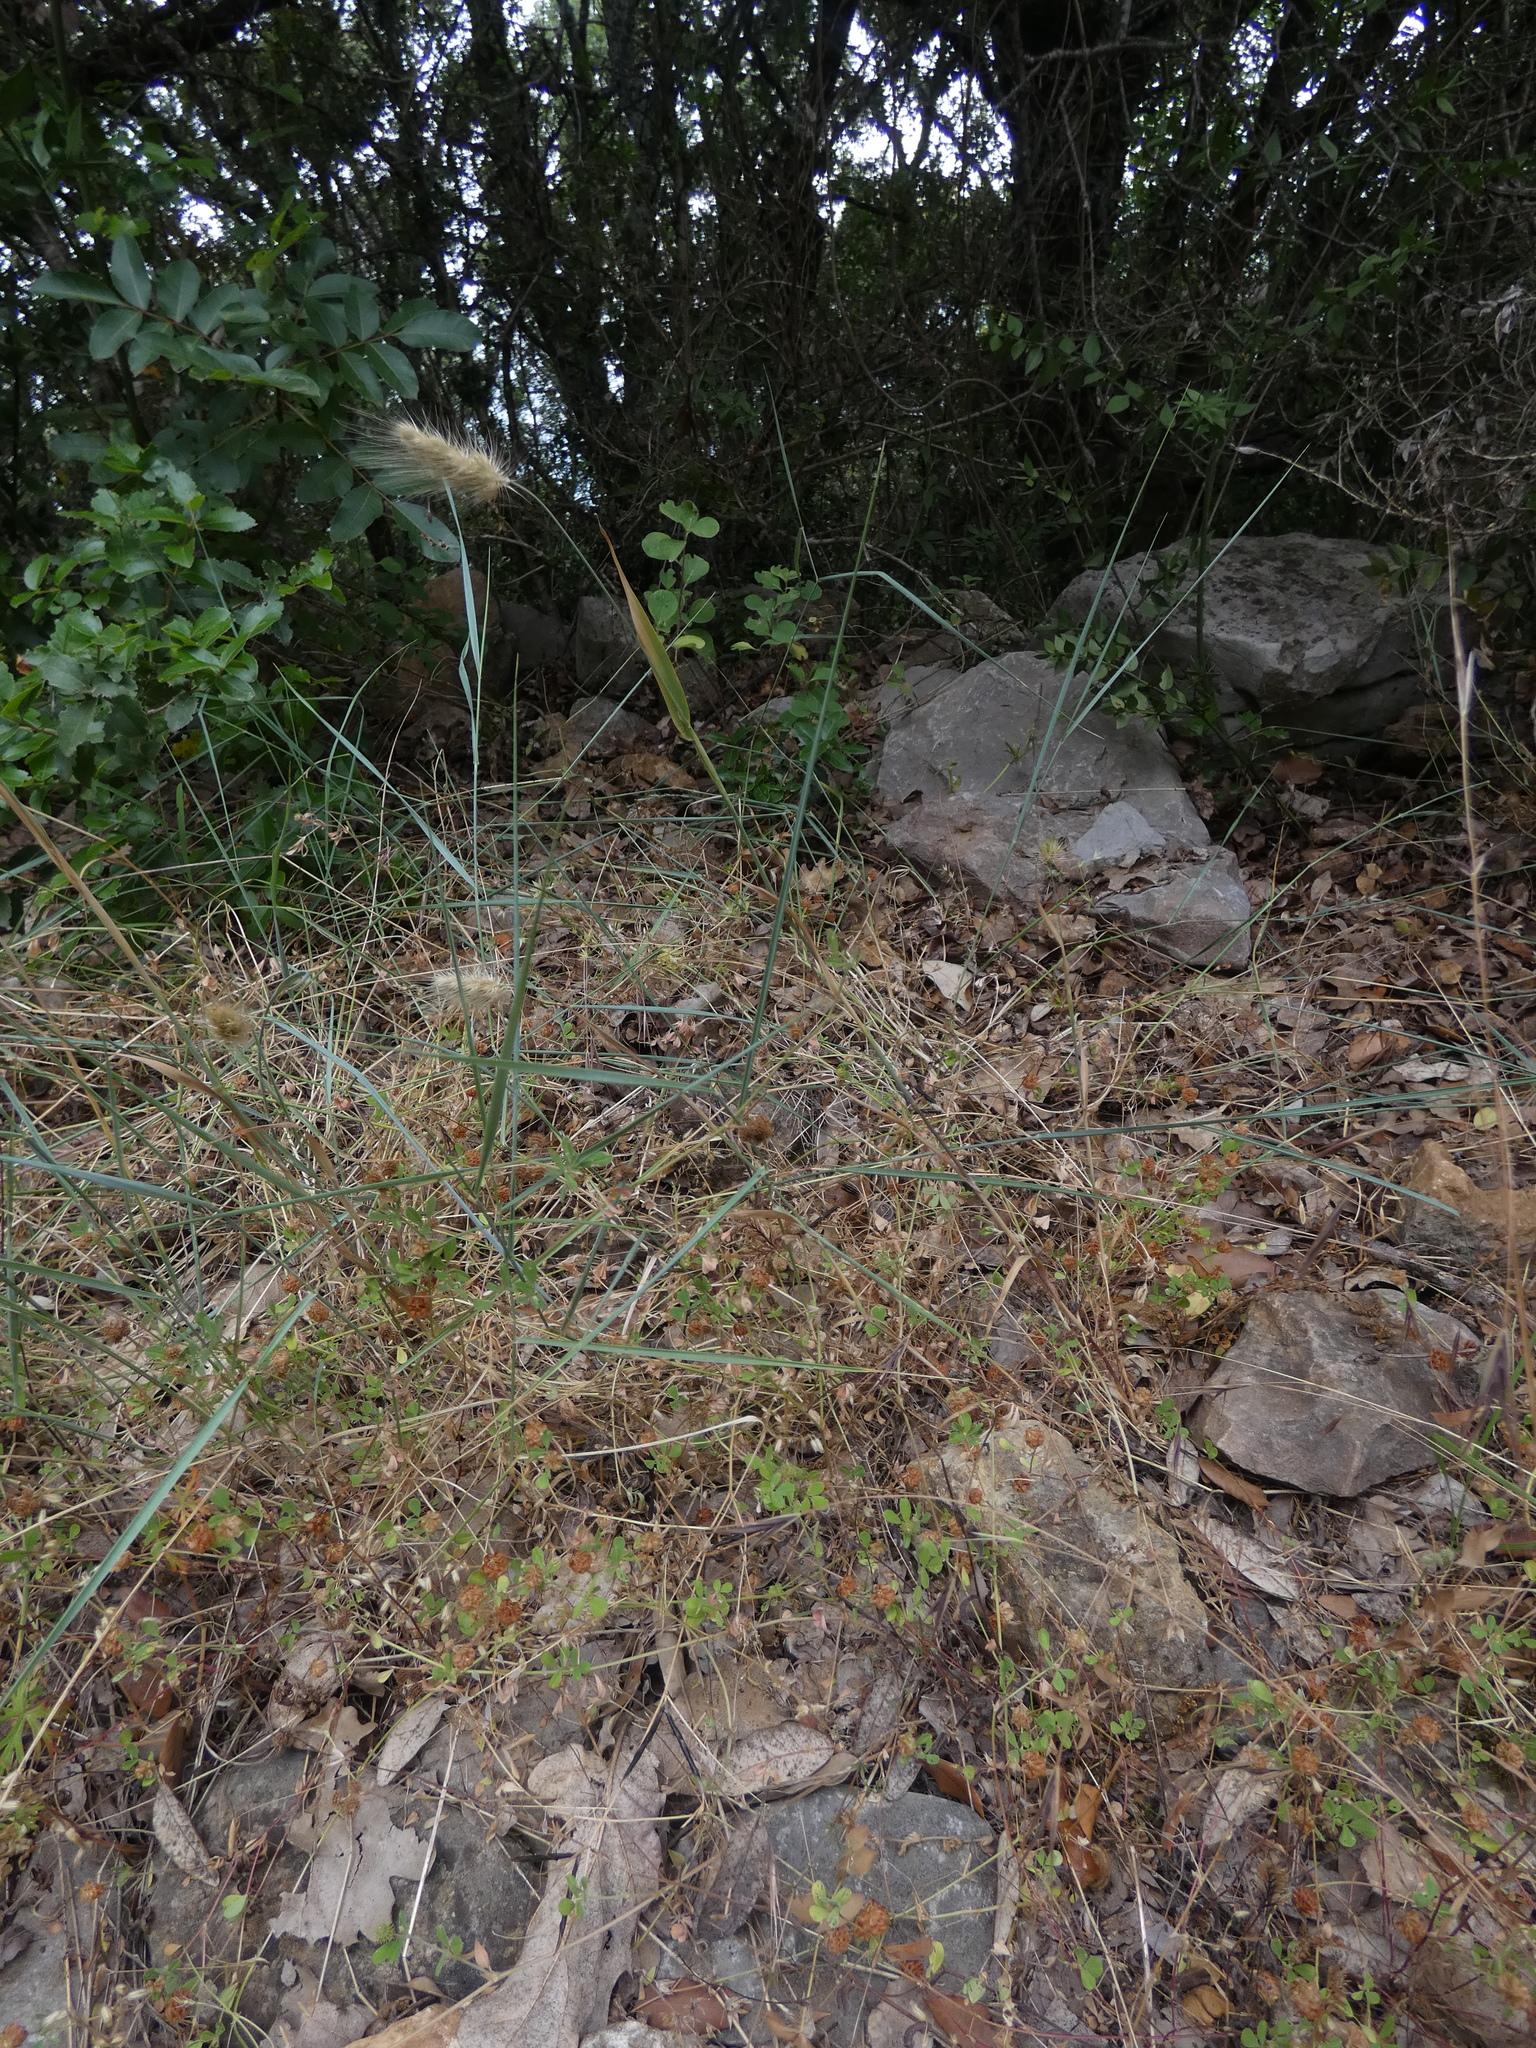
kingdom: Plantae
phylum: Tracheophyta
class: Liliopsida
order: Poales
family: Poaceae
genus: Cynosurus
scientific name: Cynosurus echinatus
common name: Rough dog's-tail
